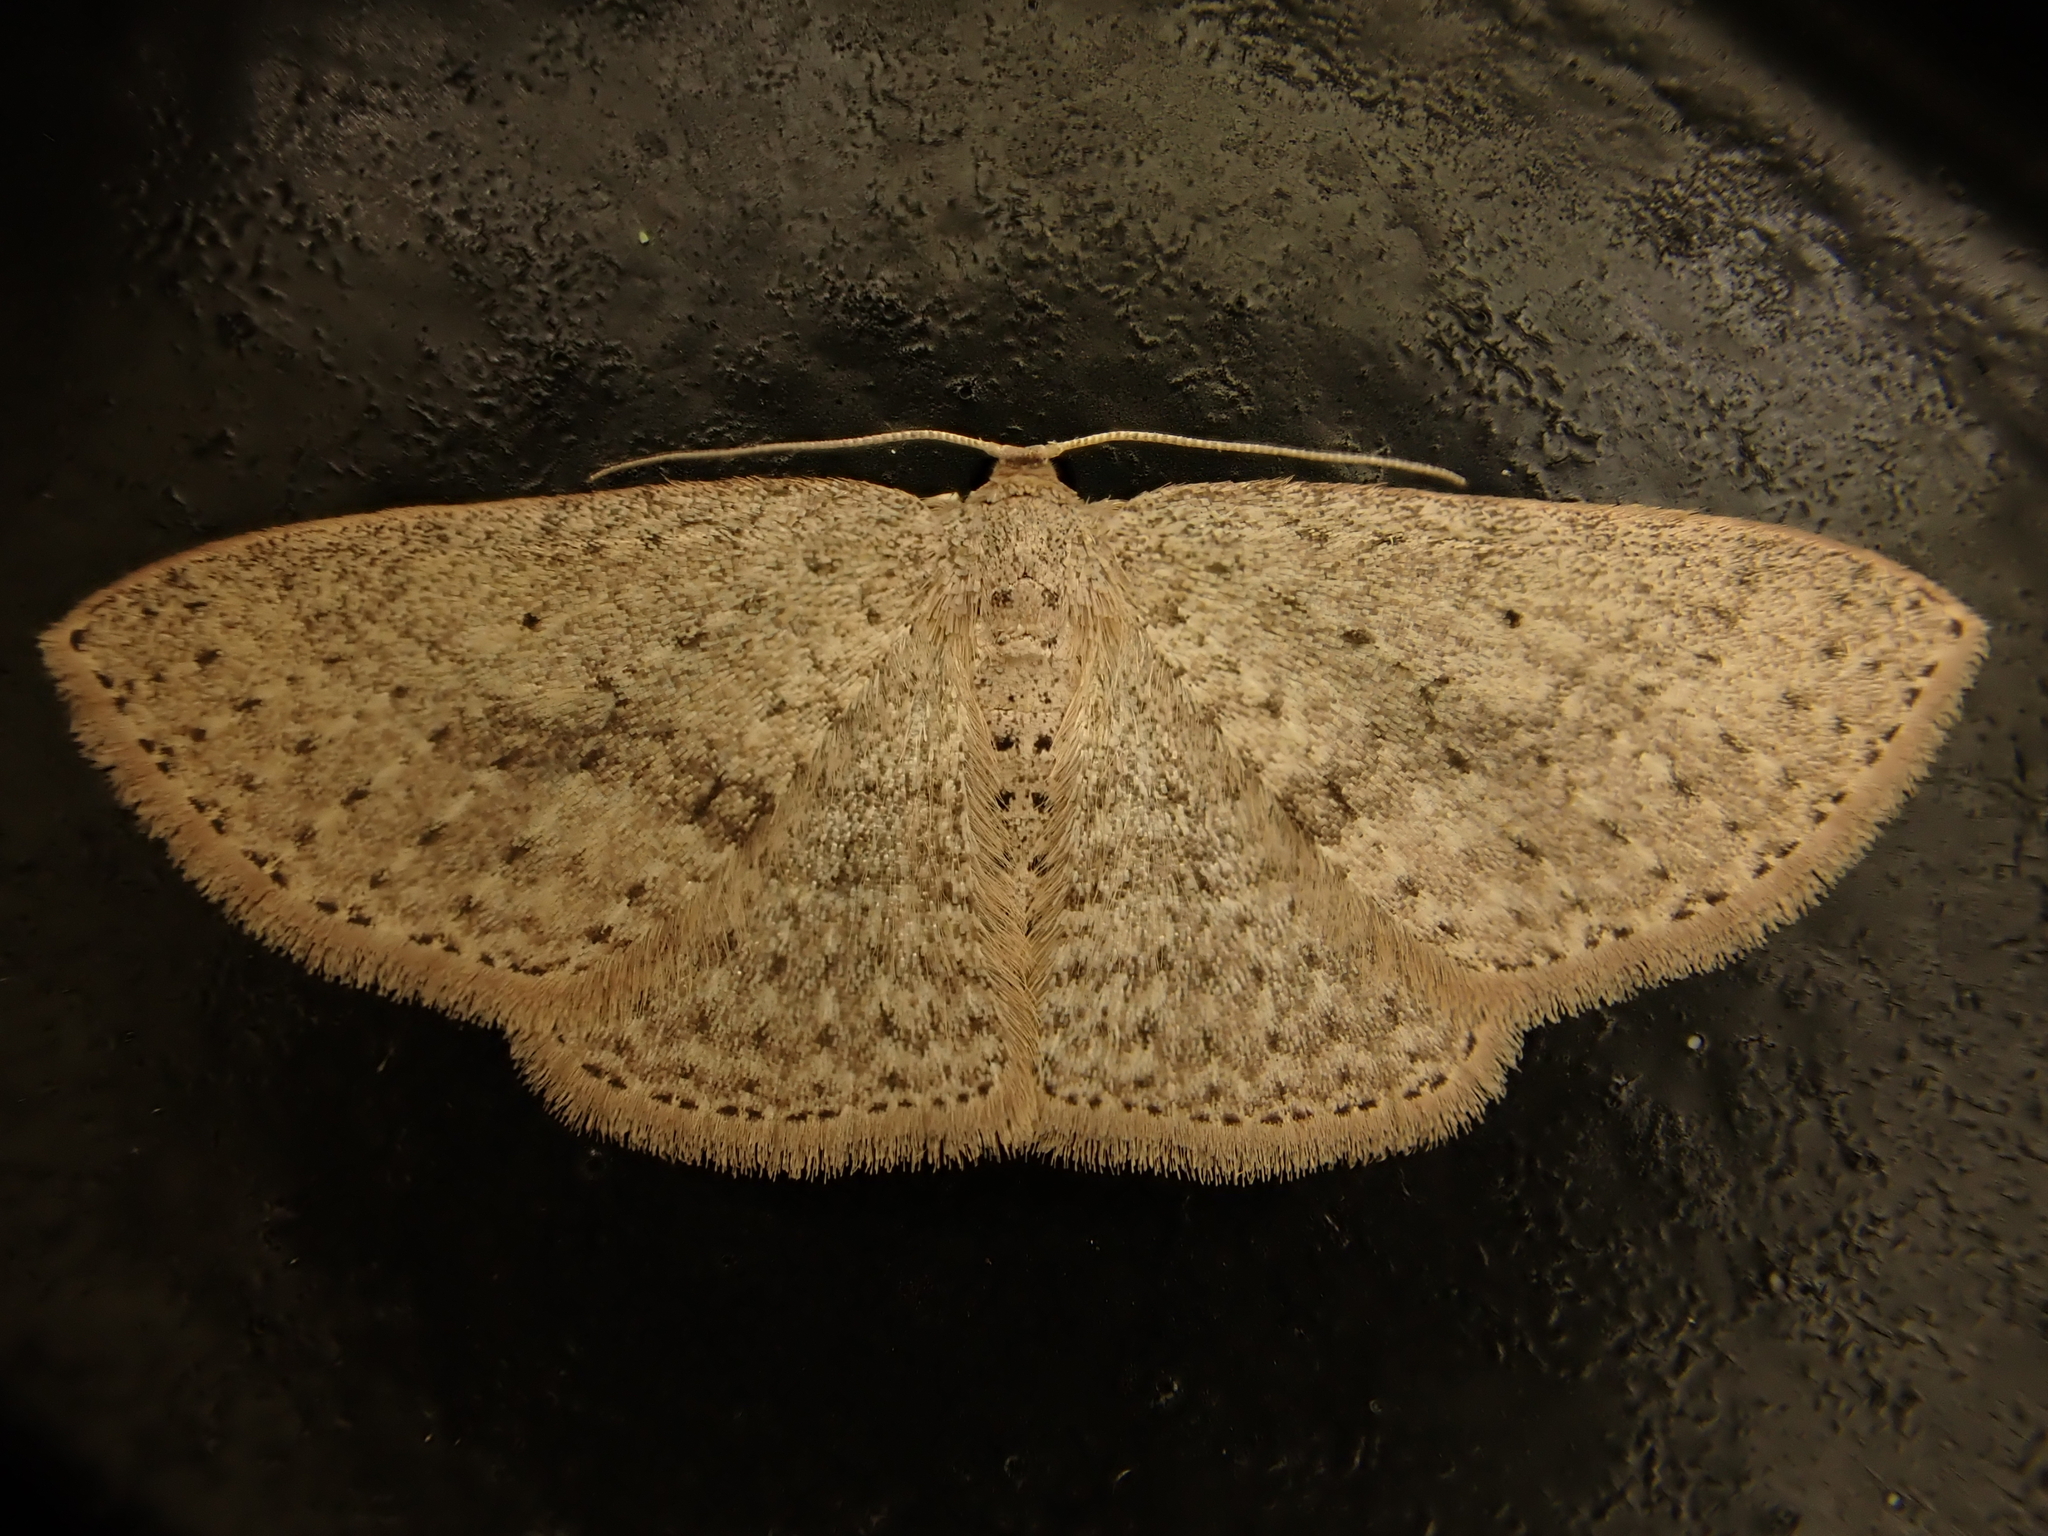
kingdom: Animalia
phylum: Arthropoda
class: Insecta
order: Lepidoptera
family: Geometridae
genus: Poecilasthena
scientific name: Poecilasthena schistaria
